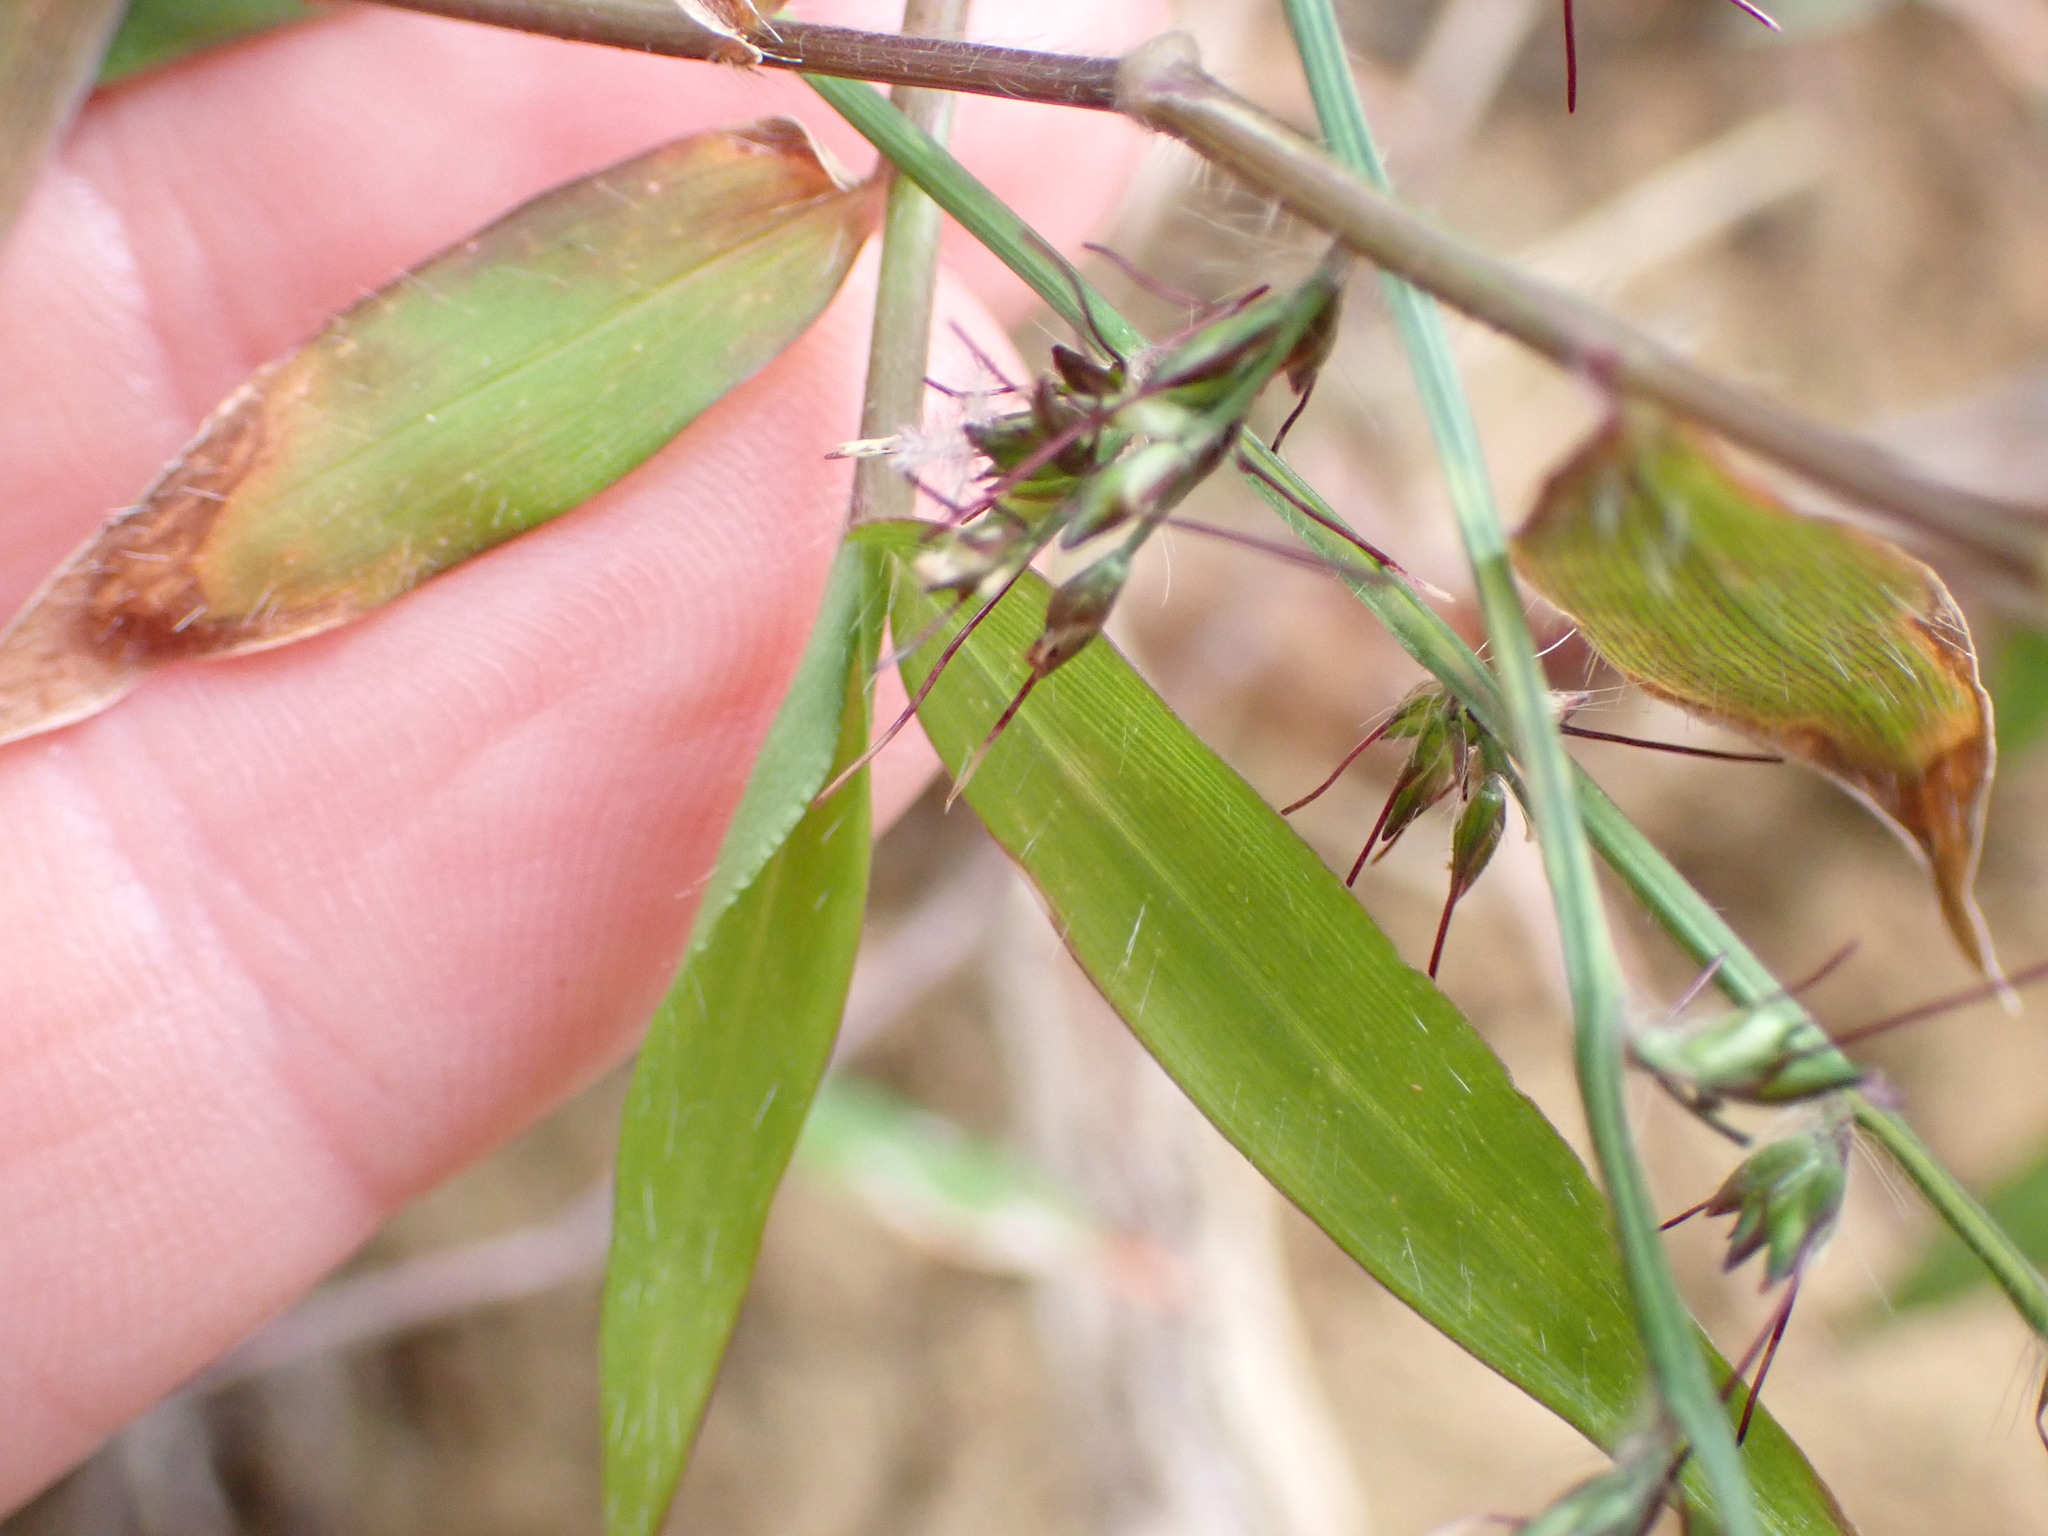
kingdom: Plantae
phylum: Tracheophyta
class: Liliopsida
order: Poales
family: Poaceae
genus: Oplismenus
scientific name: Oplismenus hirtellus
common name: Basketgrass
